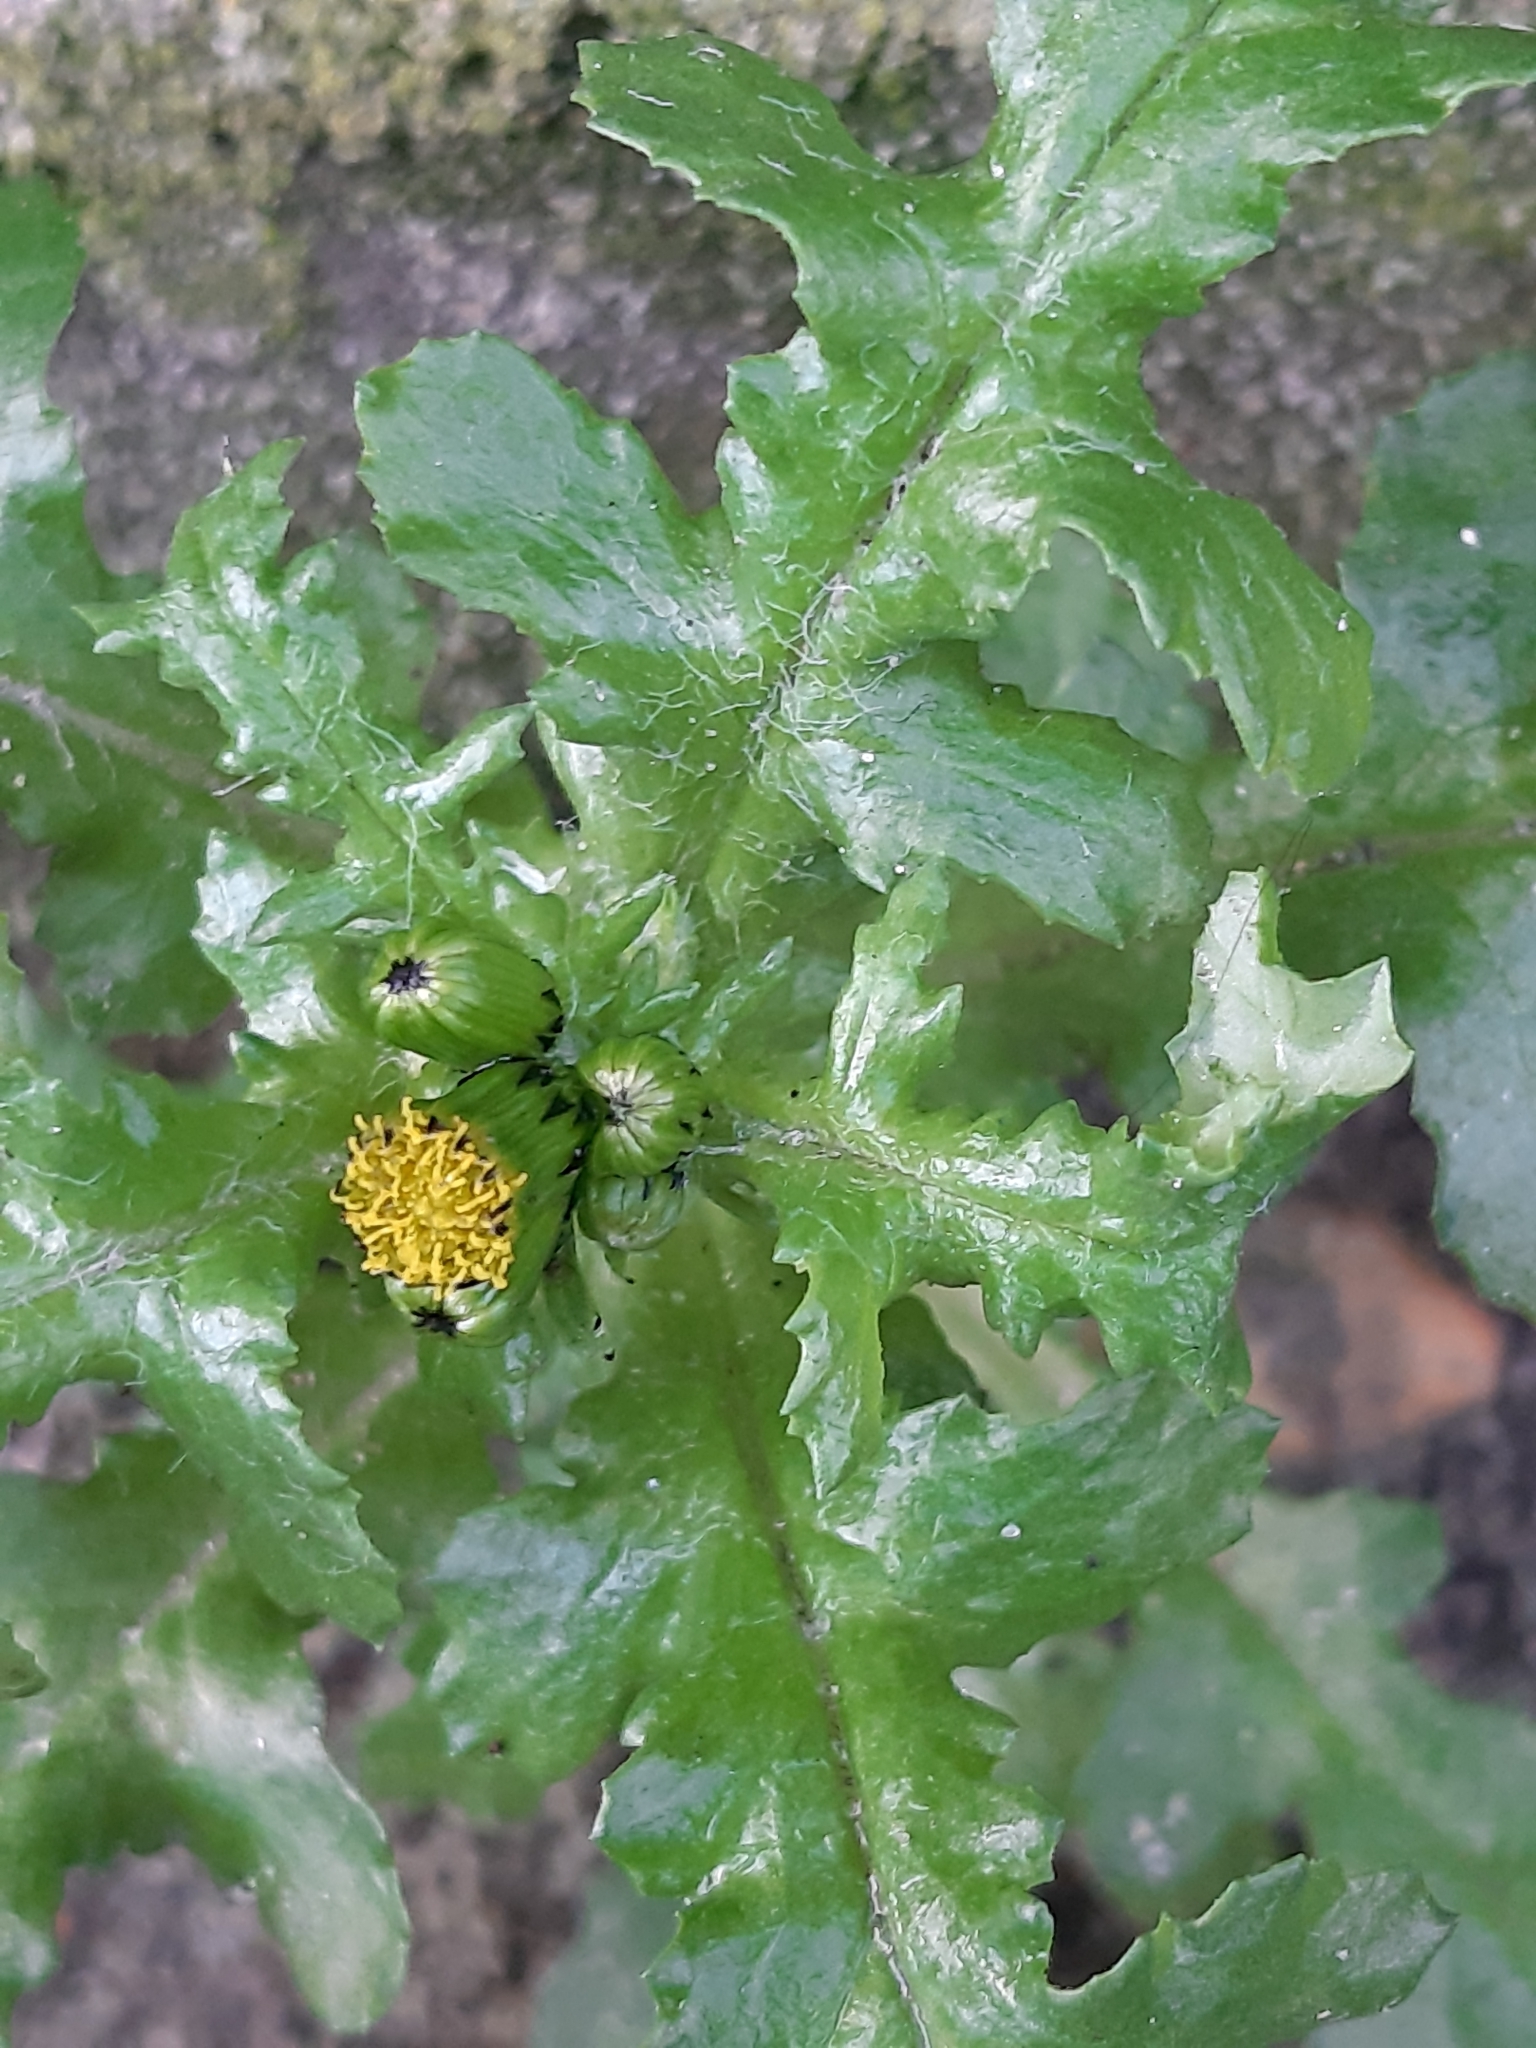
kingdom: Plantae
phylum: Tracheophyta
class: Magnoliopsida
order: Asterales
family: Asteraceae
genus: Senecio
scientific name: Senecio vulgaris
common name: Old-man-in-the-spring
